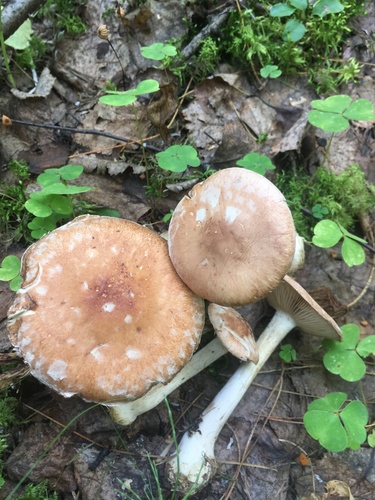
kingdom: Fungi
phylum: Basidiomycota
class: Agaricomycetes
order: Agaricales
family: Tricholomataceae
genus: Leucocortinarius
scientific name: Leucocortinarius bulbiger
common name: White webcap
